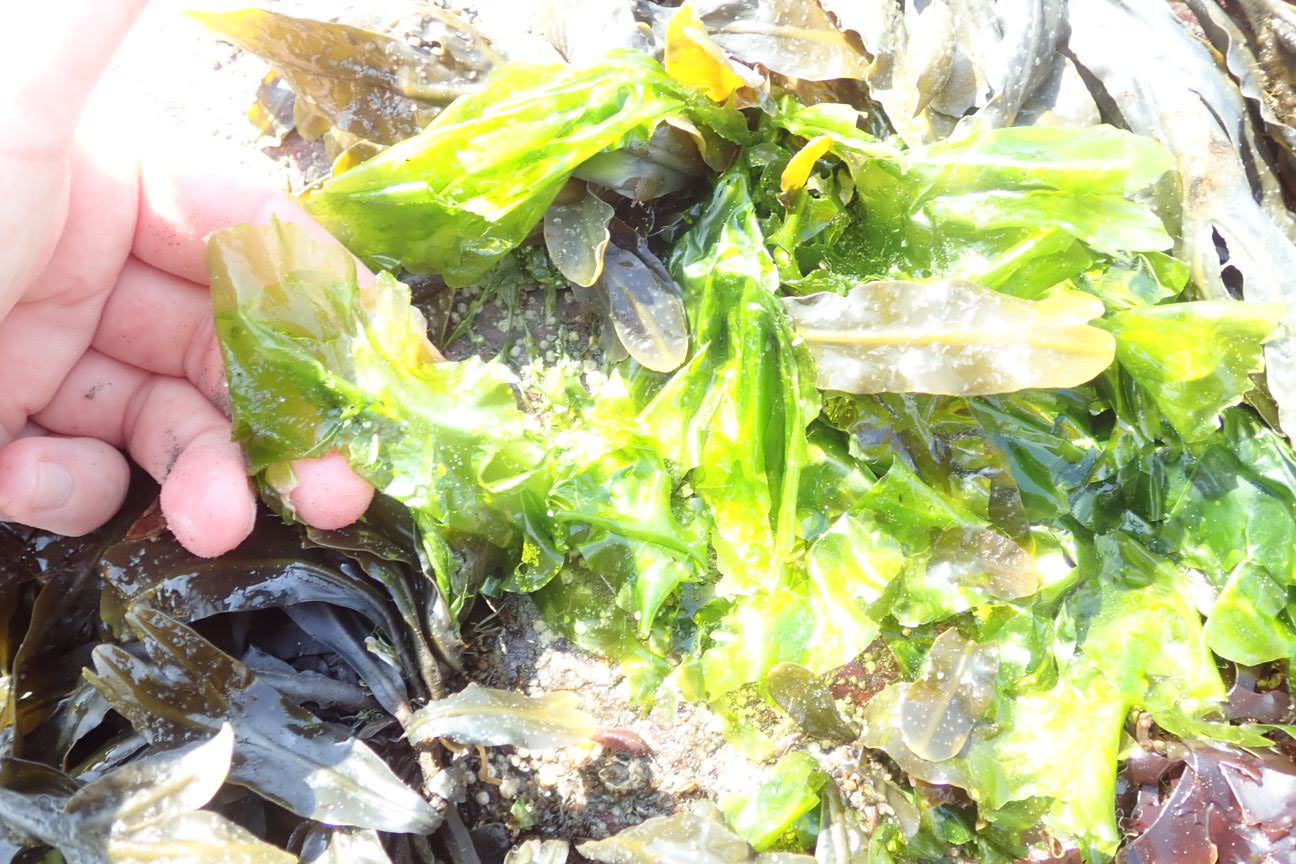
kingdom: Plantae
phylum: Chlorophyta
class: Ulvophyceae
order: Ulvales
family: Ulvaceae
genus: Ulva
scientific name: Ulva lactuca
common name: Sea lettuce
